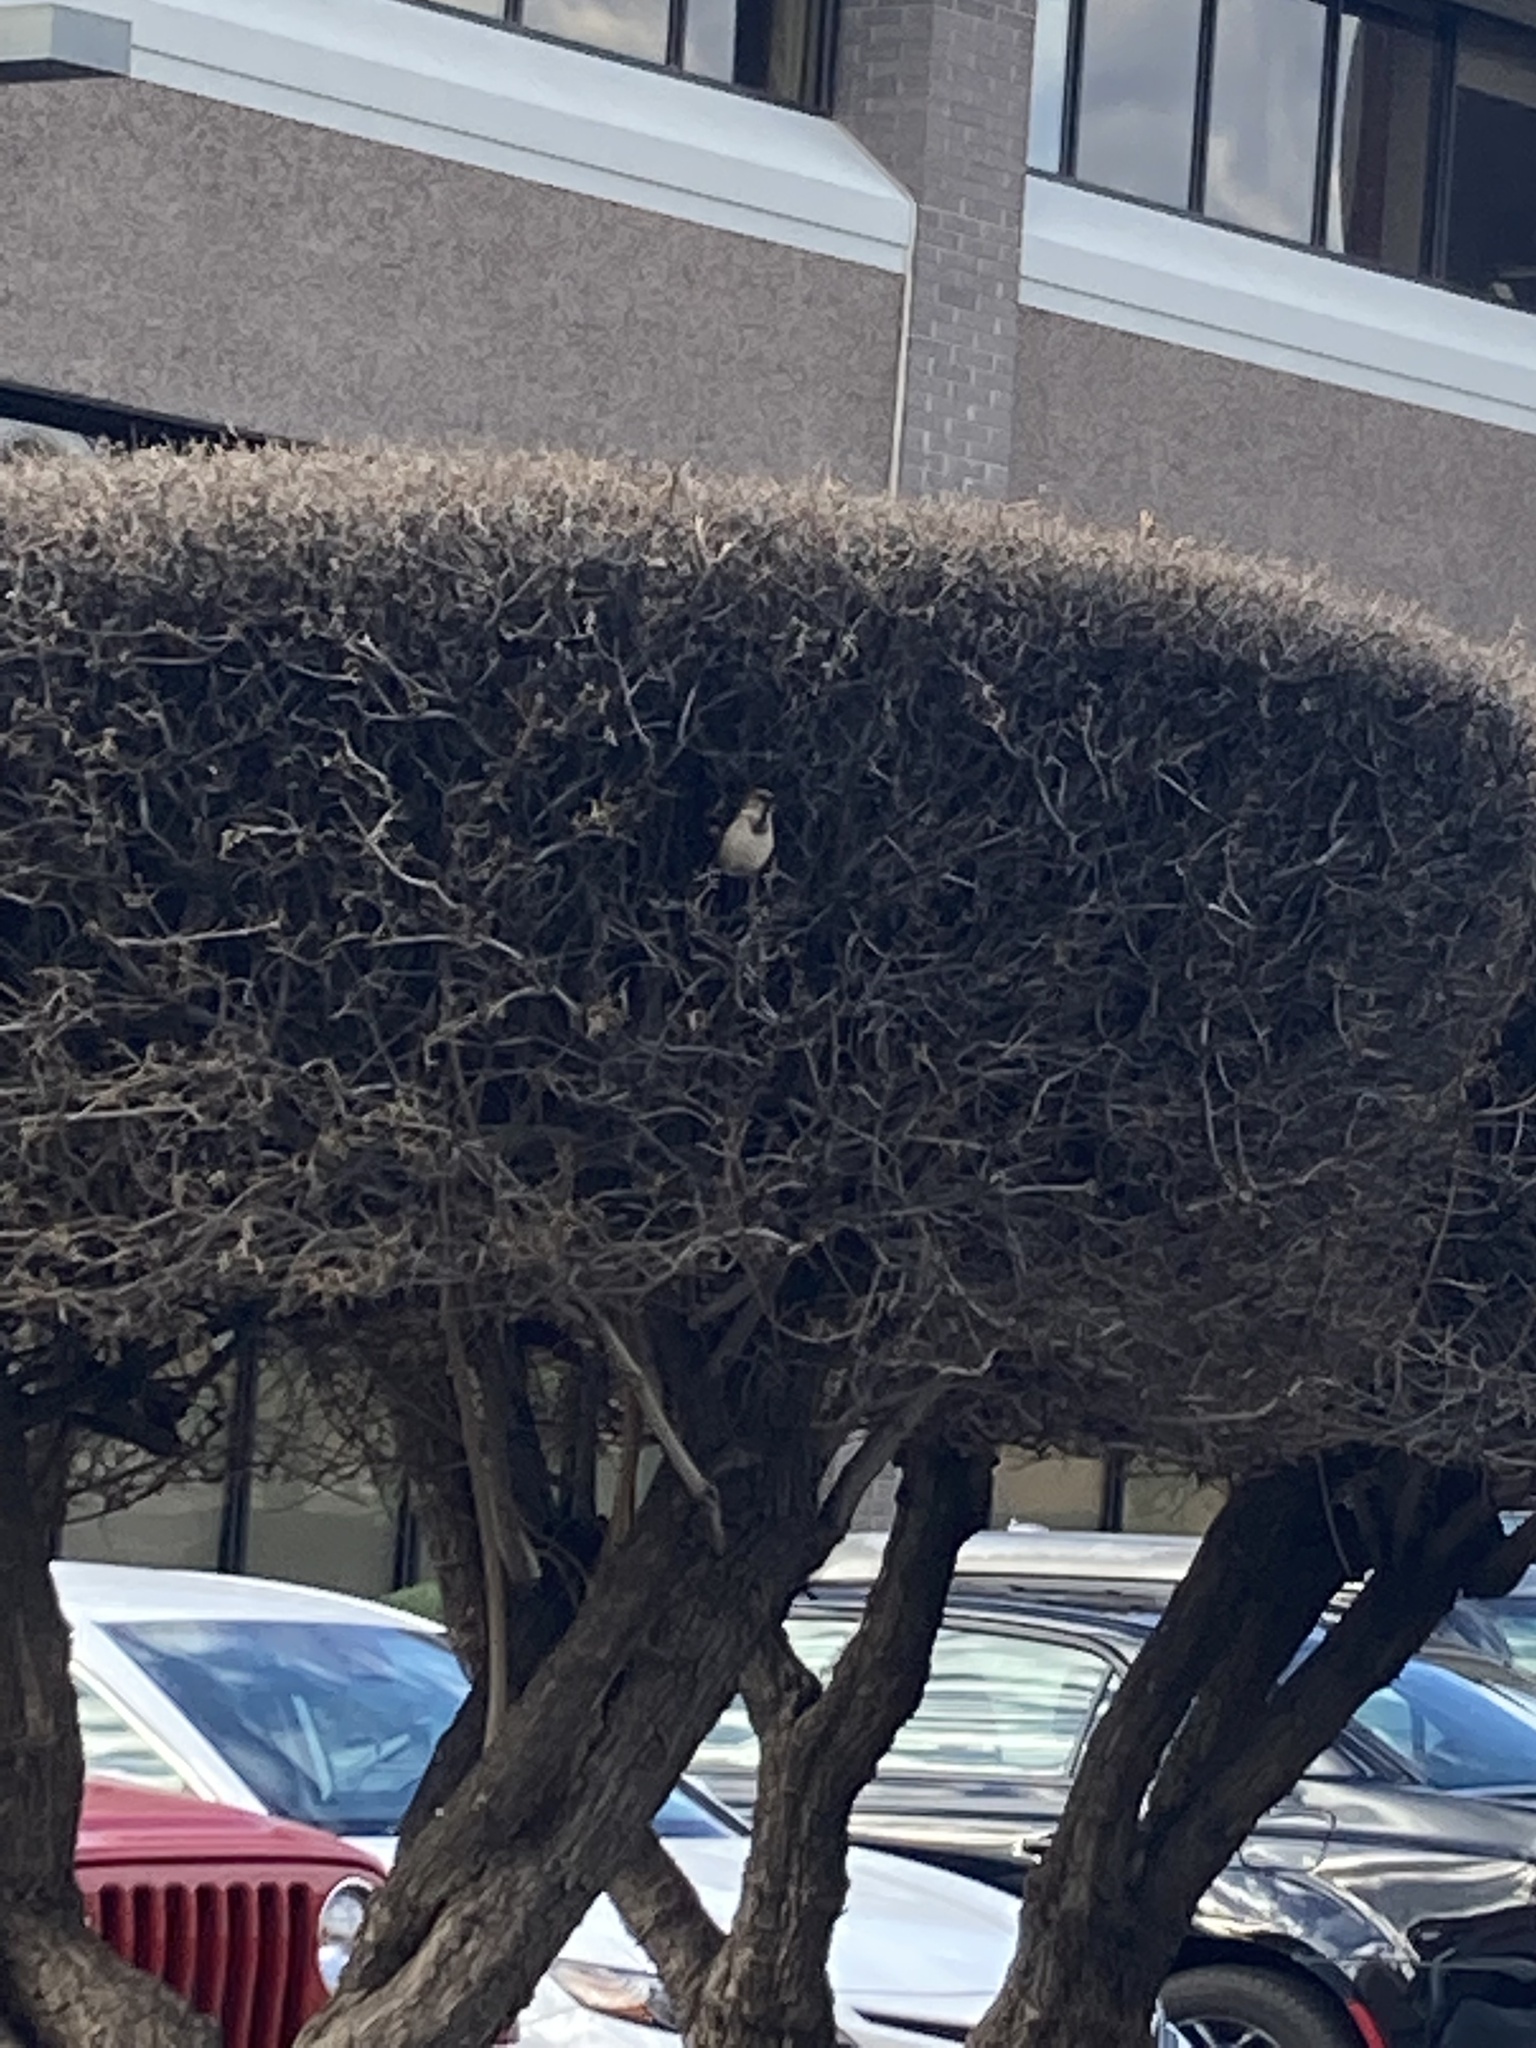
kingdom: Animalia
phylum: Chordata
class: Aves
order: Passeriformes
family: Passeridae
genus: Passer
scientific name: Passer domesticus
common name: House sparrow
